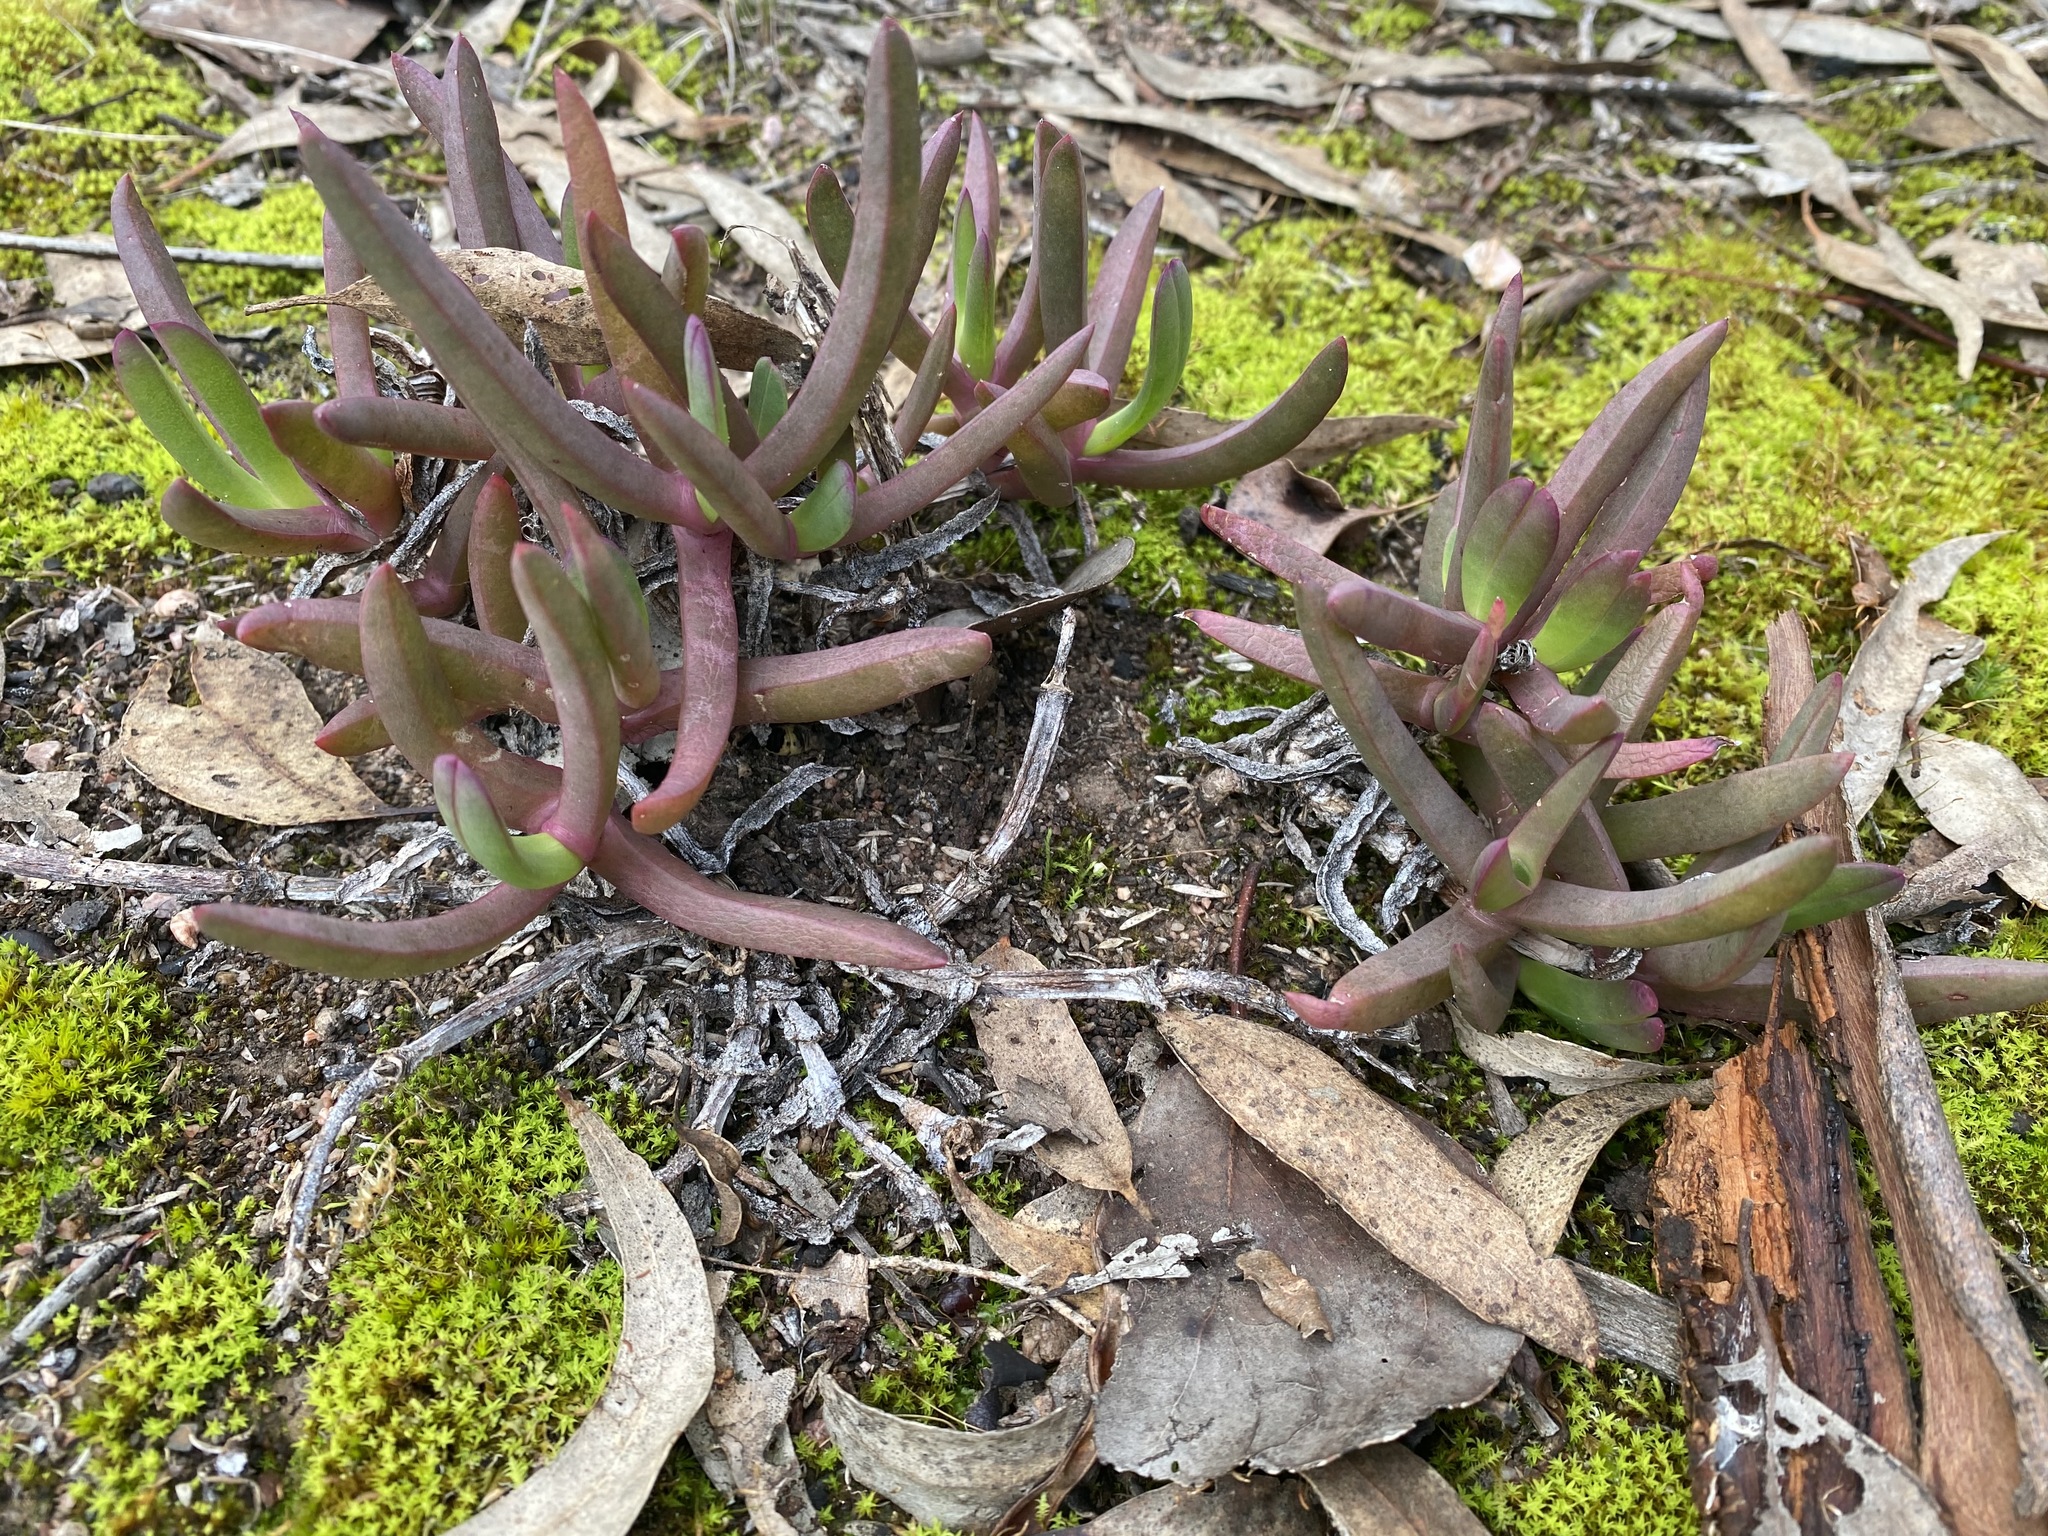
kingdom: Plantae
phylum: Tracheophyta
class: Magnoliopsida
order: Caryophyllales
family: Aizoaceae
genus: Carpobrotus
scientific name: Carpobrotus modestus
